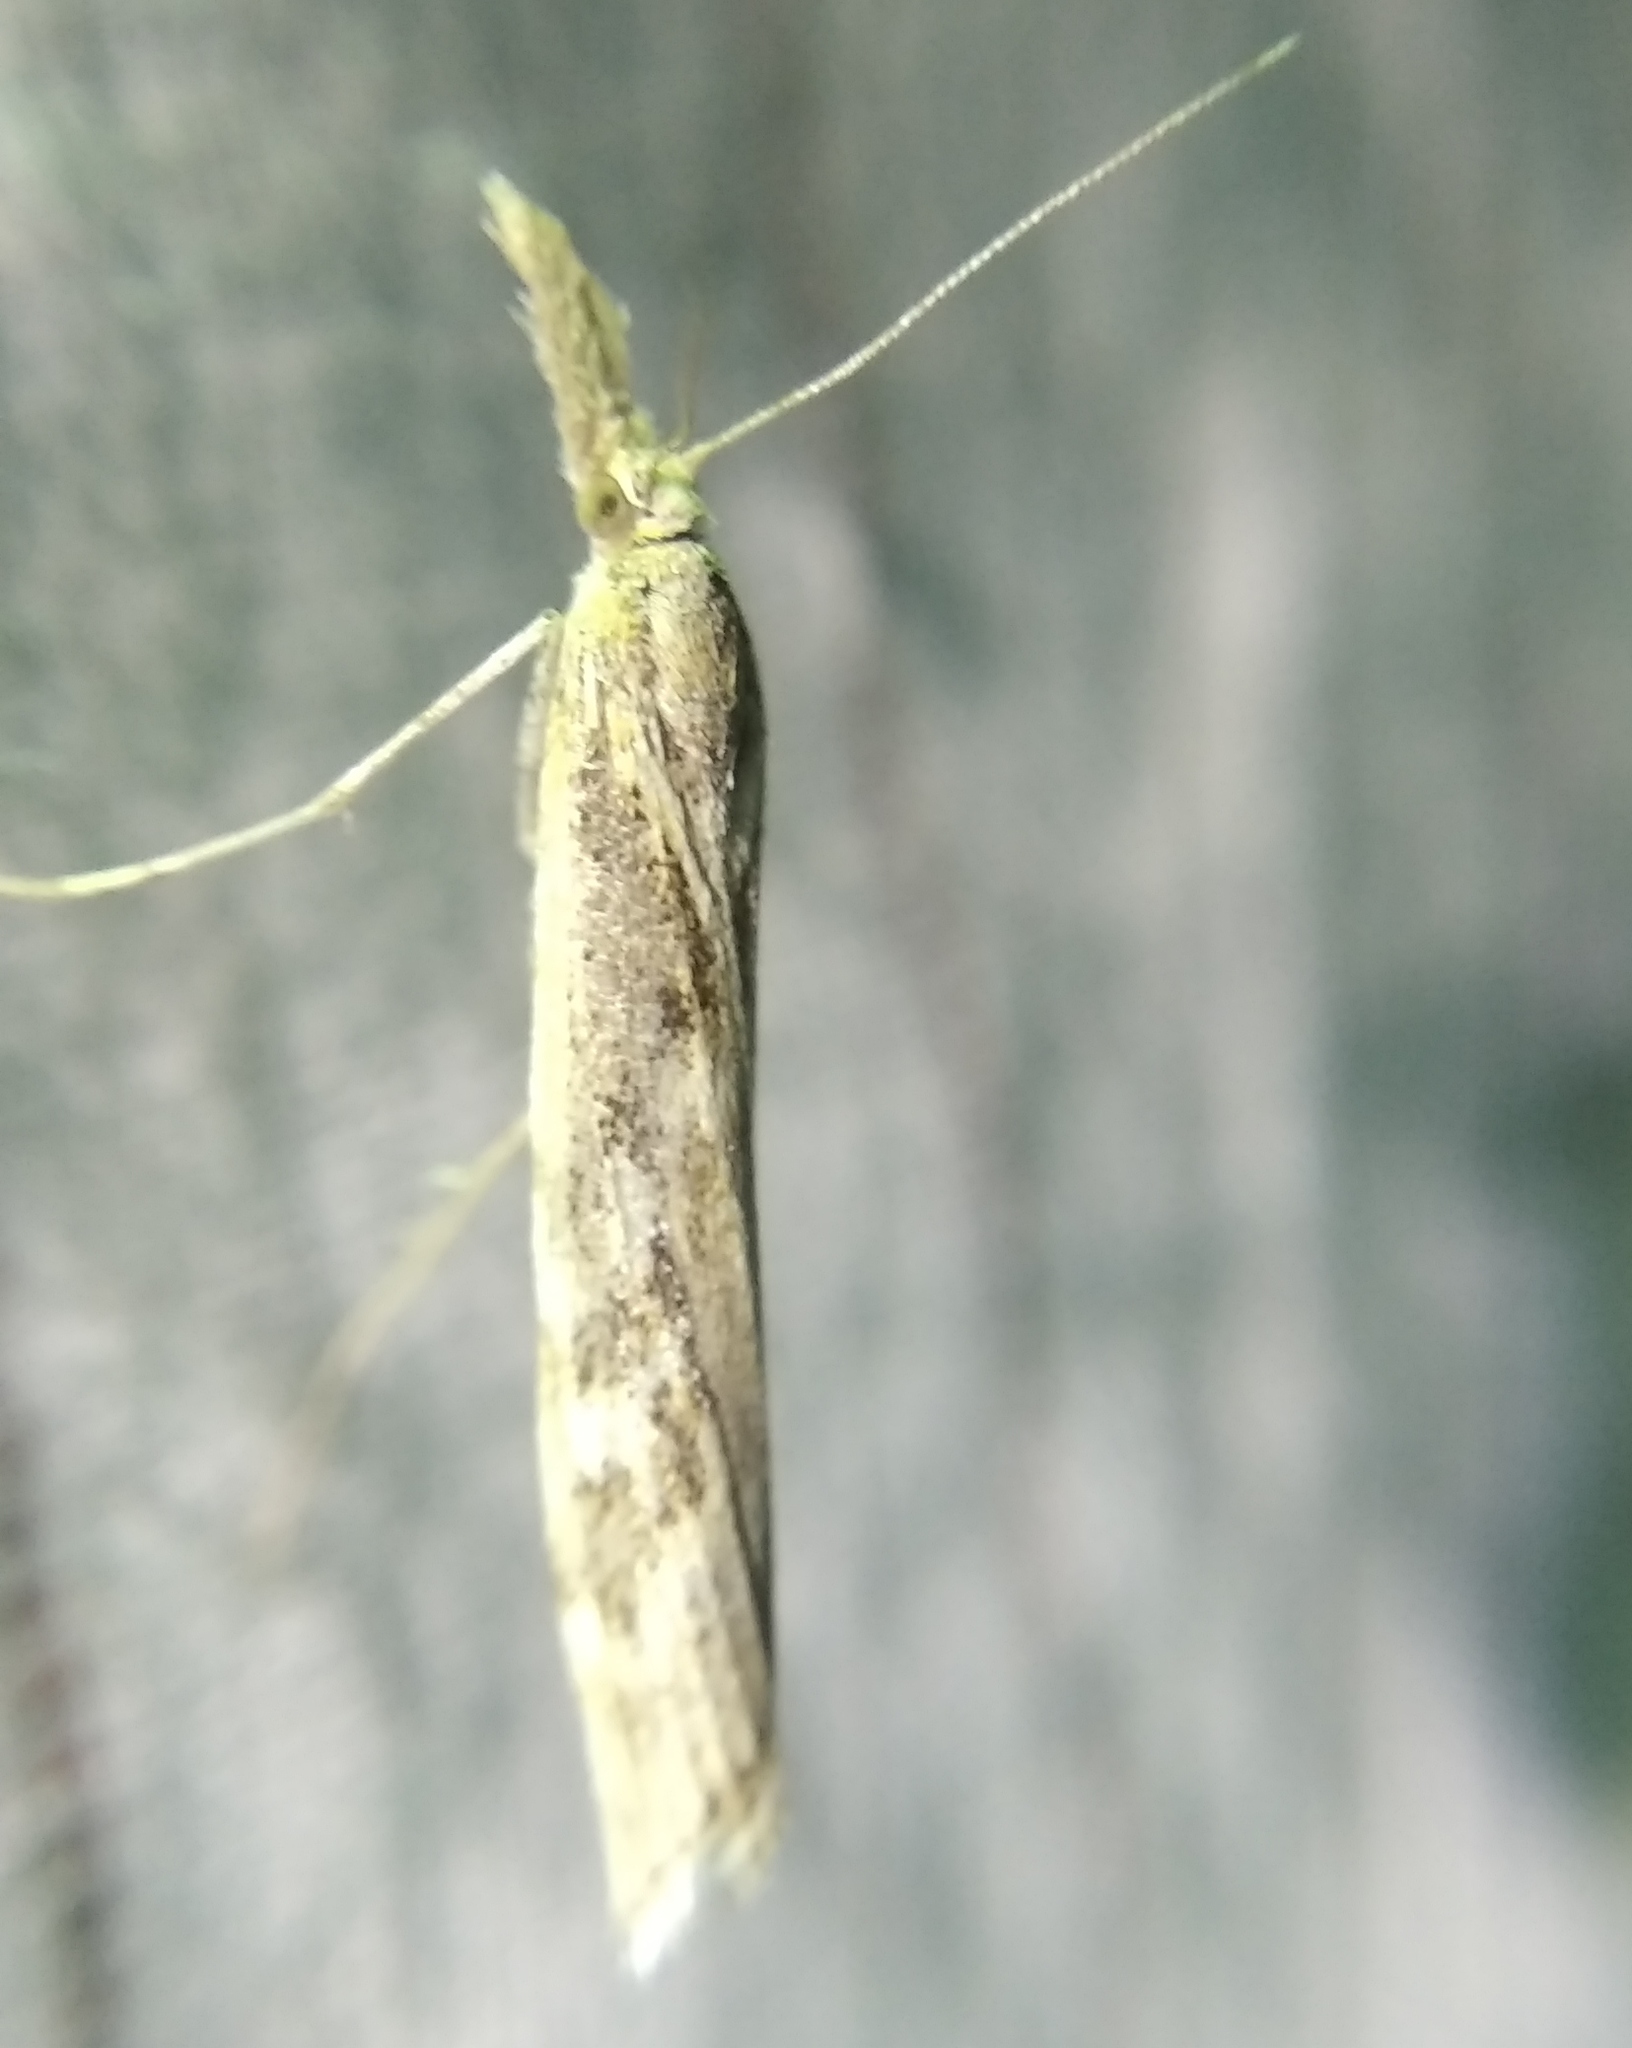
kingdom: Animalia
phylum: Arthropoda
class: Insecta
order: Lepidoptera
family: Crambidae
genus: Pediasia
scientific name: Pediasia matricella
